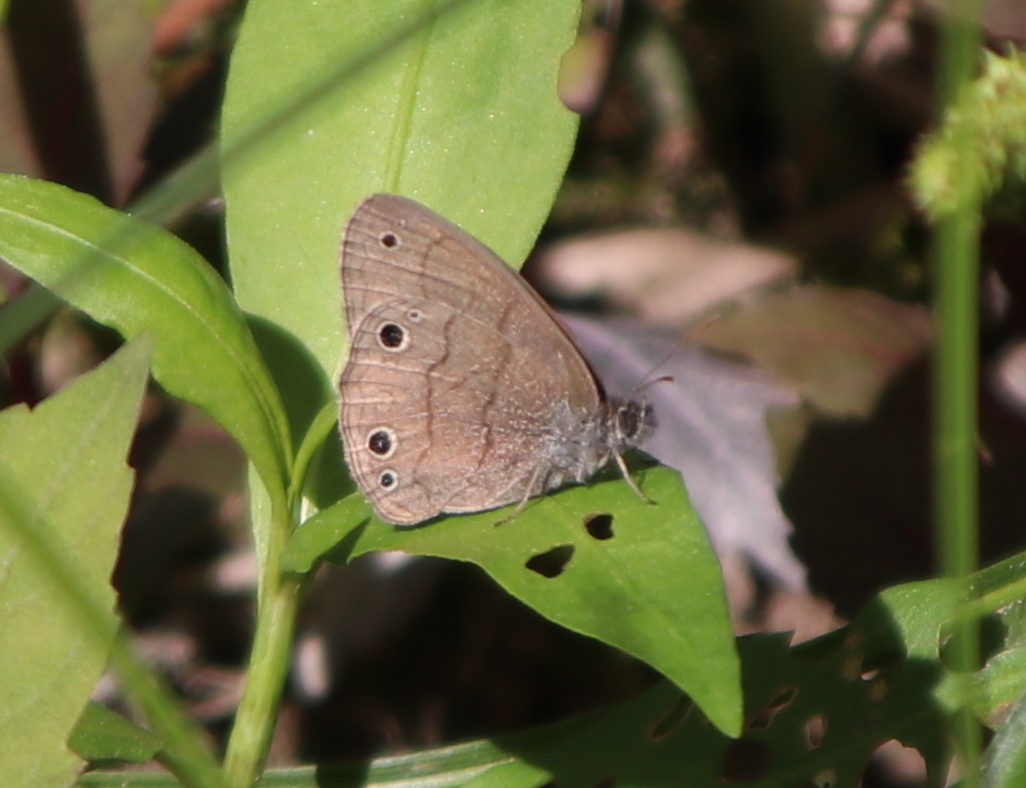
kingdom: Animalia
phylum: Arthropoda
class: Insecta
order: Lepidoptera
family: Nymphalidae
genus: Hermeuptychia
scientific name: Hermeuptychia hermes
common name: Hermes satyr
